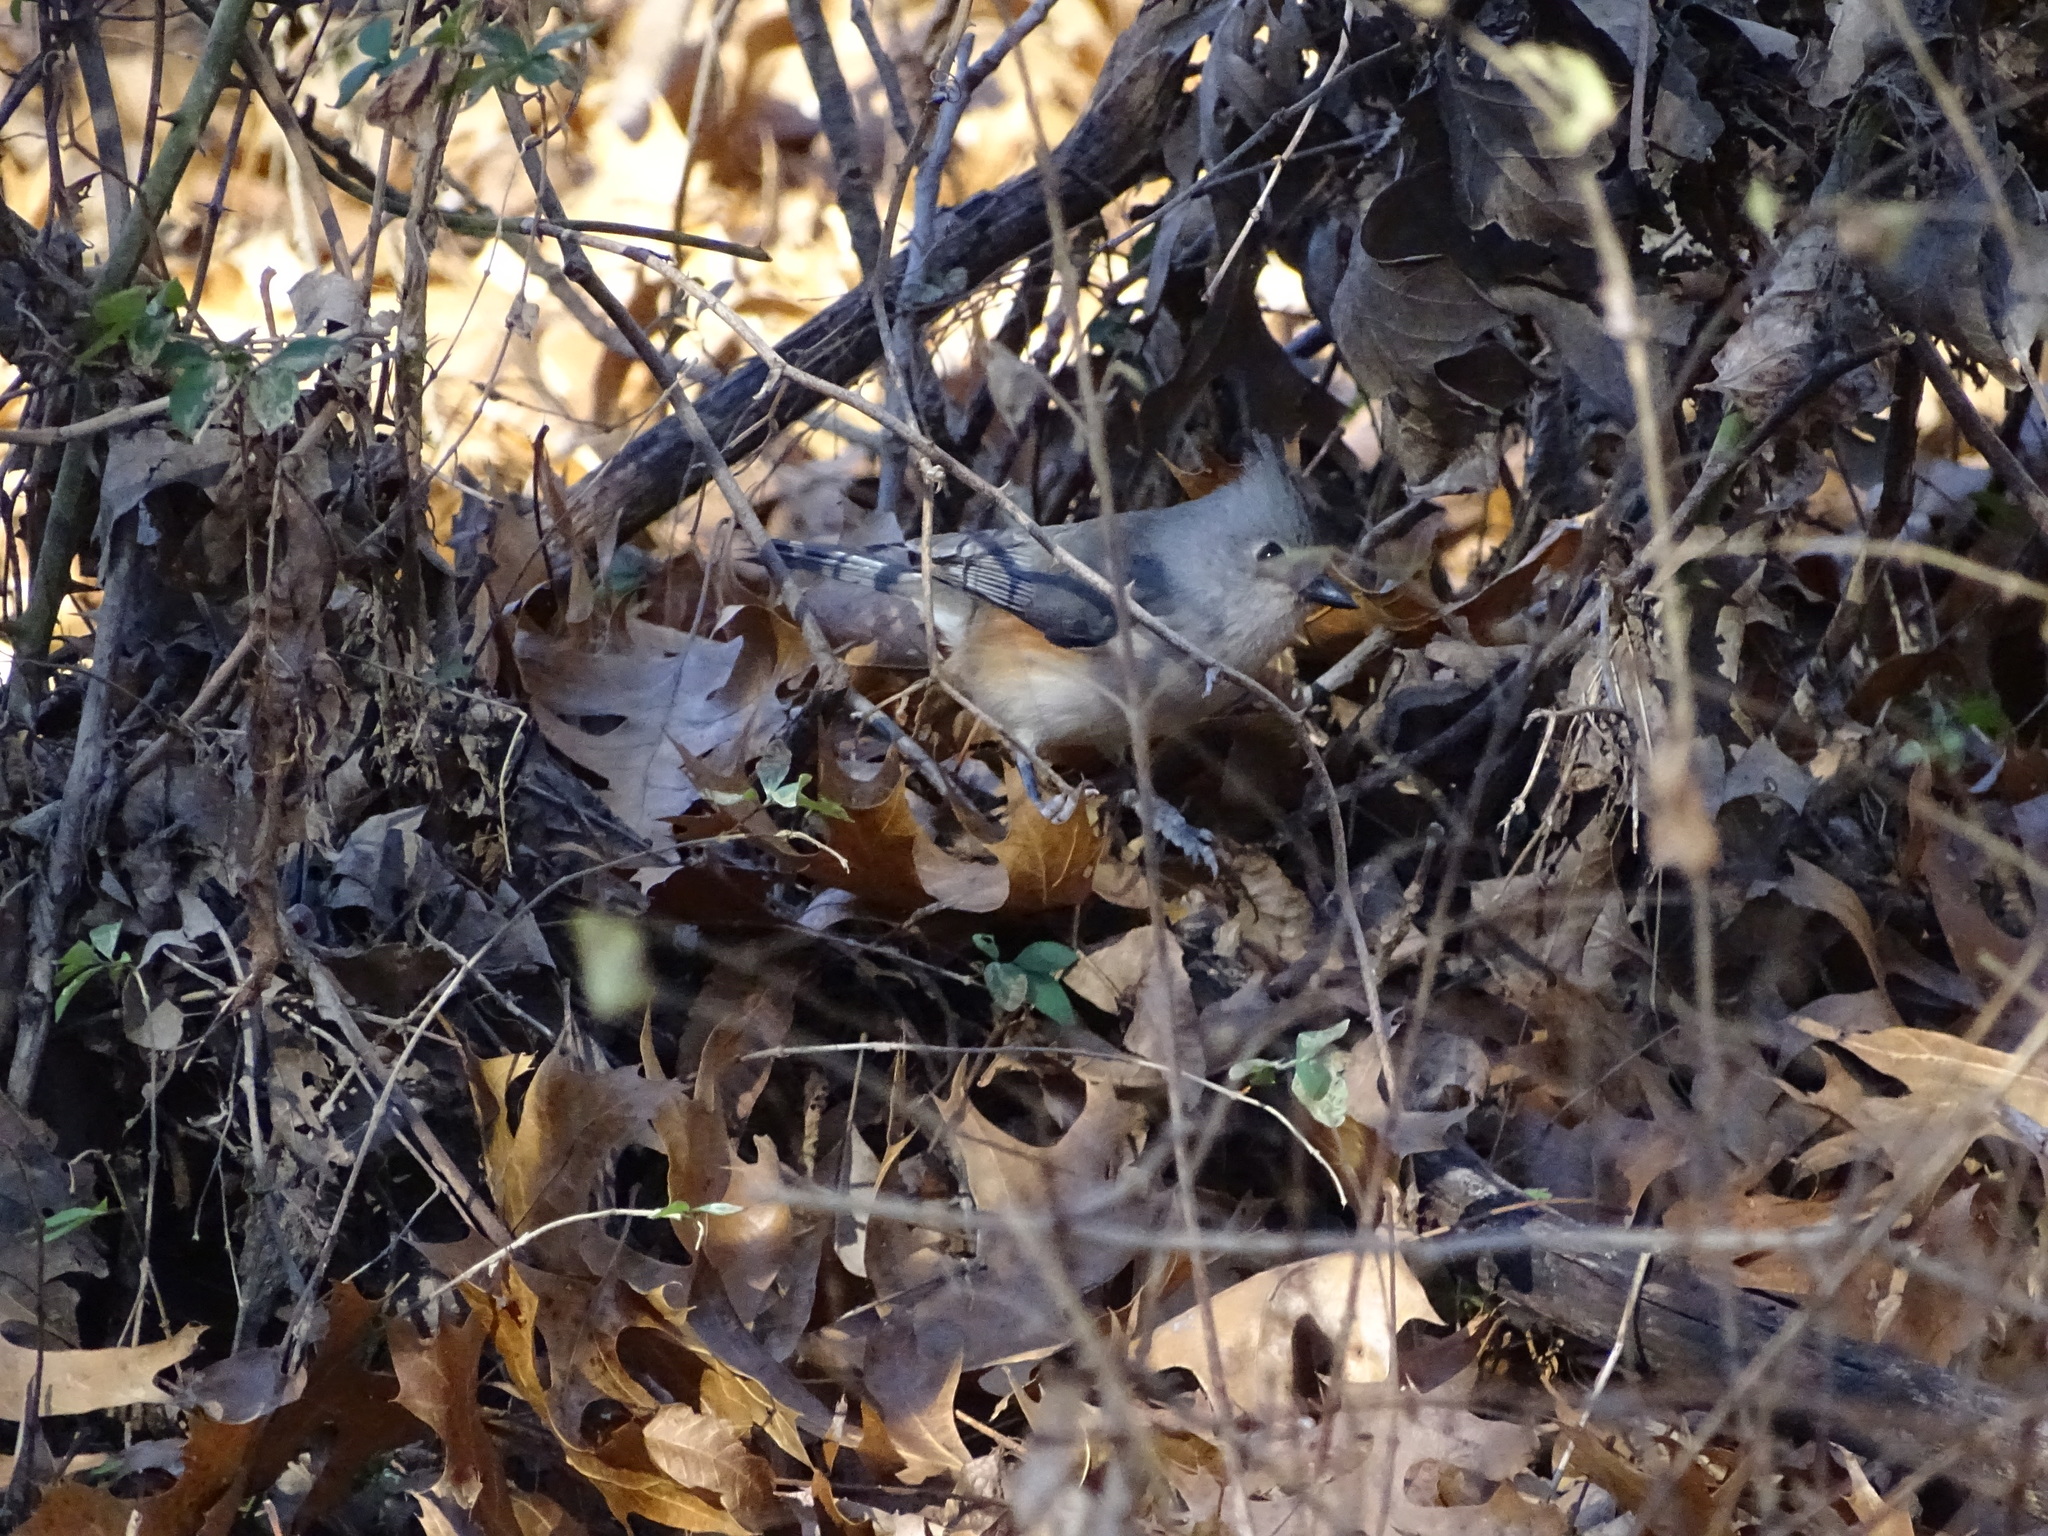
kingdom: Animalia
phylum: Chordata
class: Aves
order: Passeriformes
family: Paridae
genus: Baeolophus
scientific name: Baeolophus bicolor
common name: Tufted titmouse
